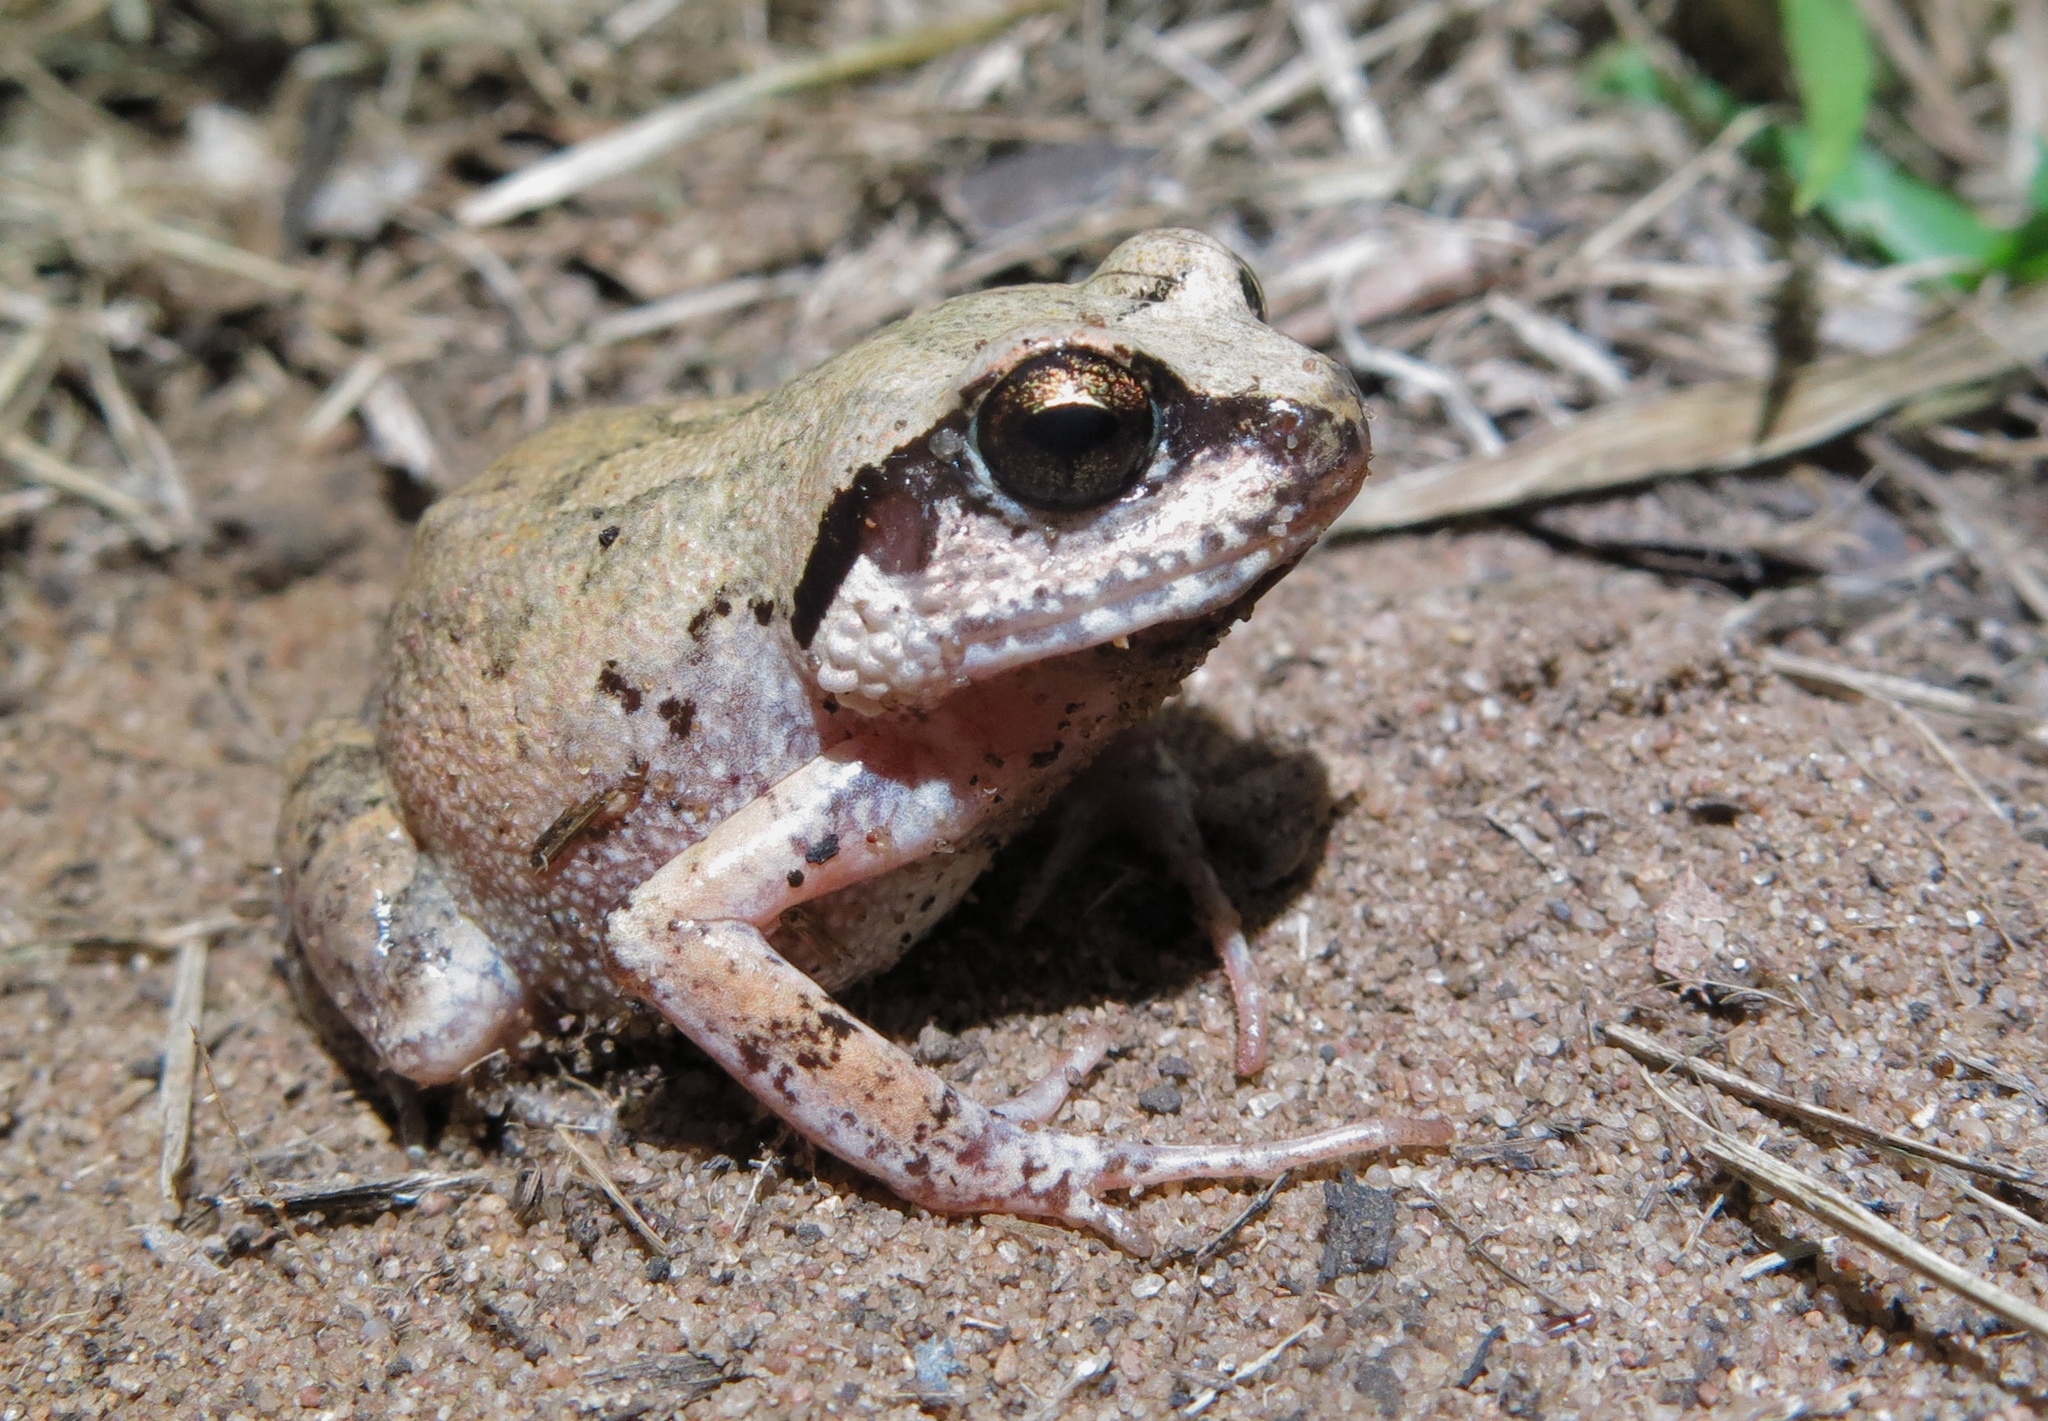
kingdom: Animalia
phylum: Chordata
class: Amphibia
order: Anura
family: Arthroleptidae
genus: Arthroleptis
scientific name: Arthroleptis stenodactylus
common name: Dune squeaker
